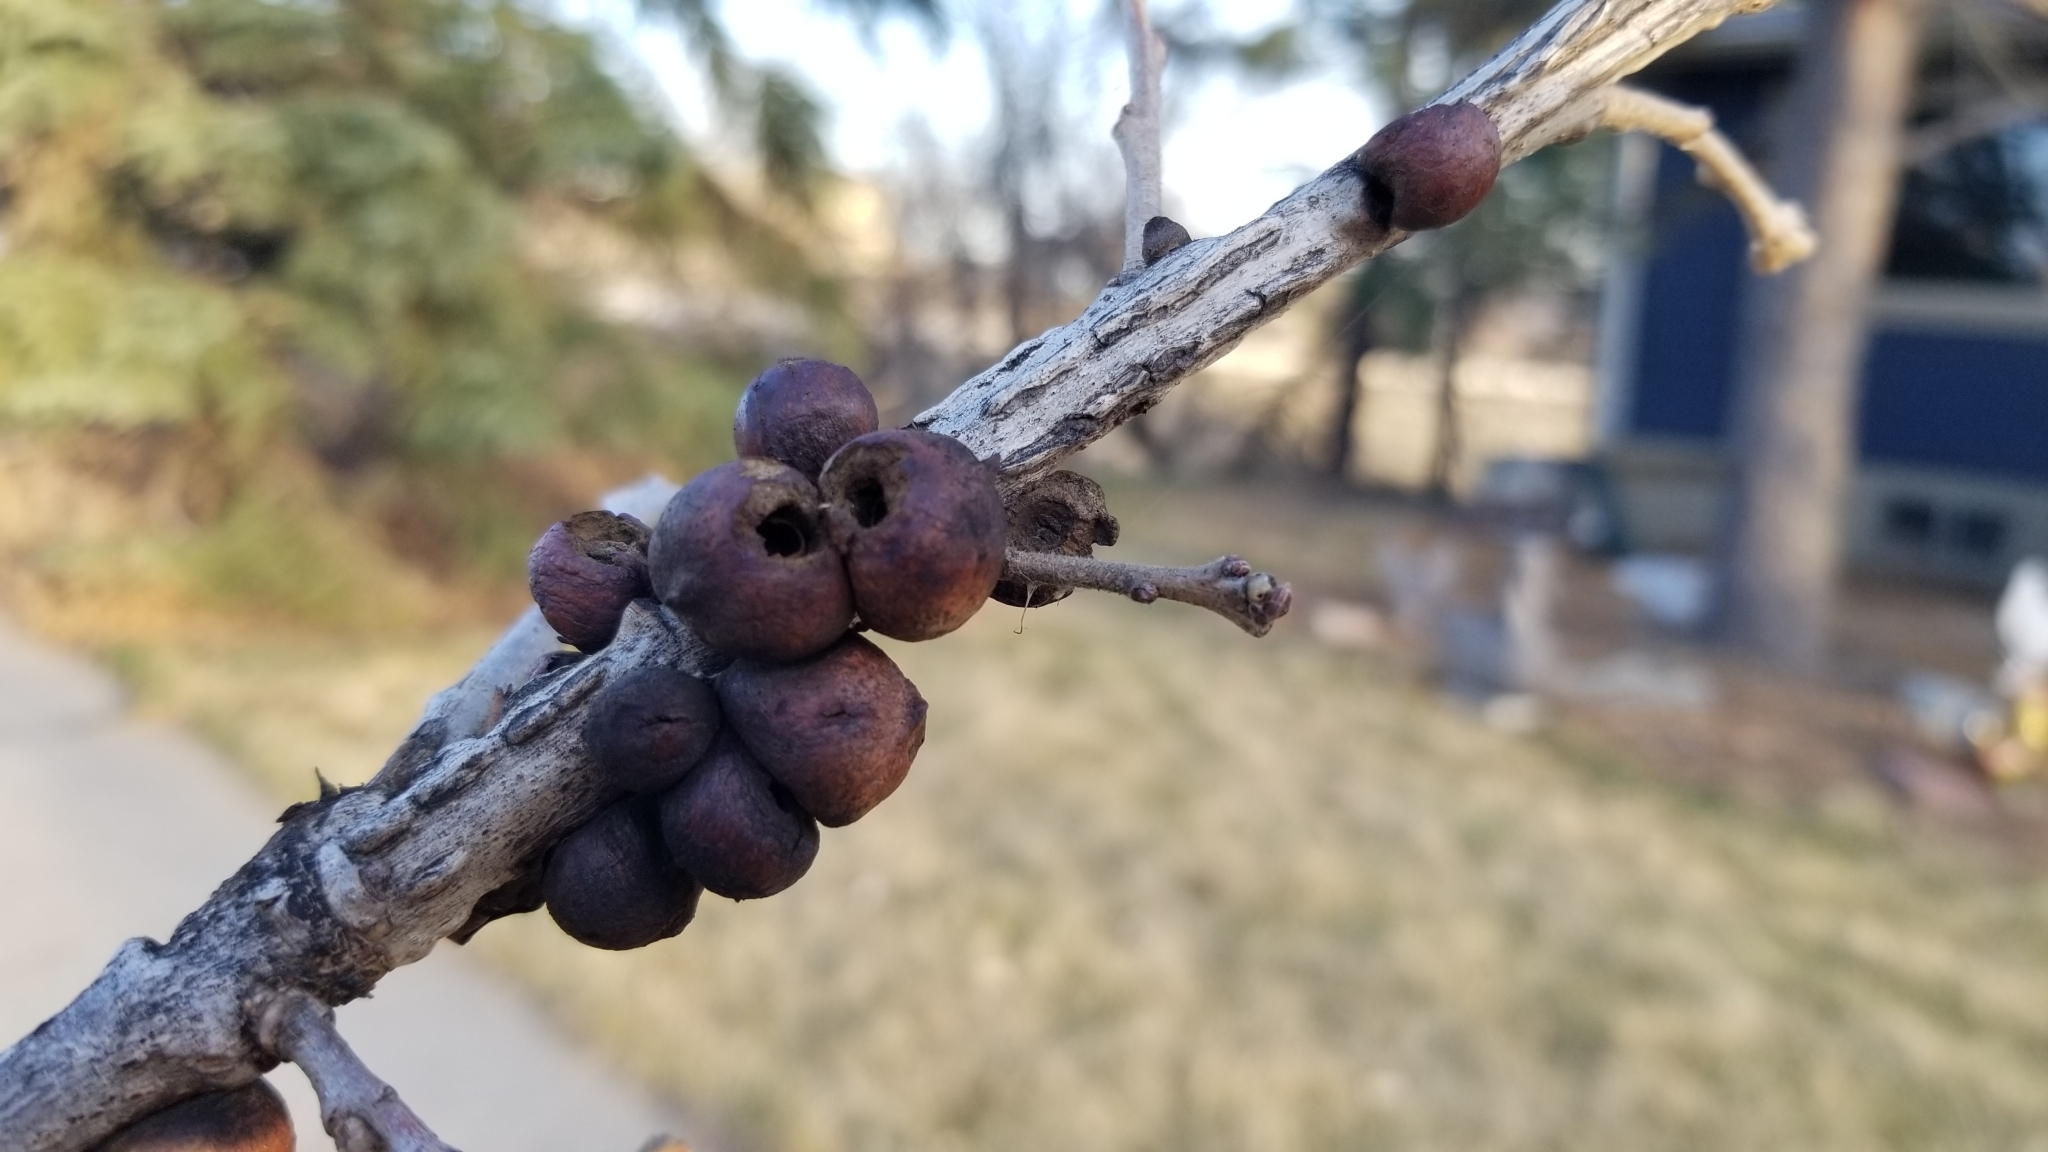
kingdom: Animalia
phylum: Arthropoda
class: Insecta
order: Hymenoptera
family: Cynipidae
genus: Disholcaspis
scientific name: Disholcaspis
